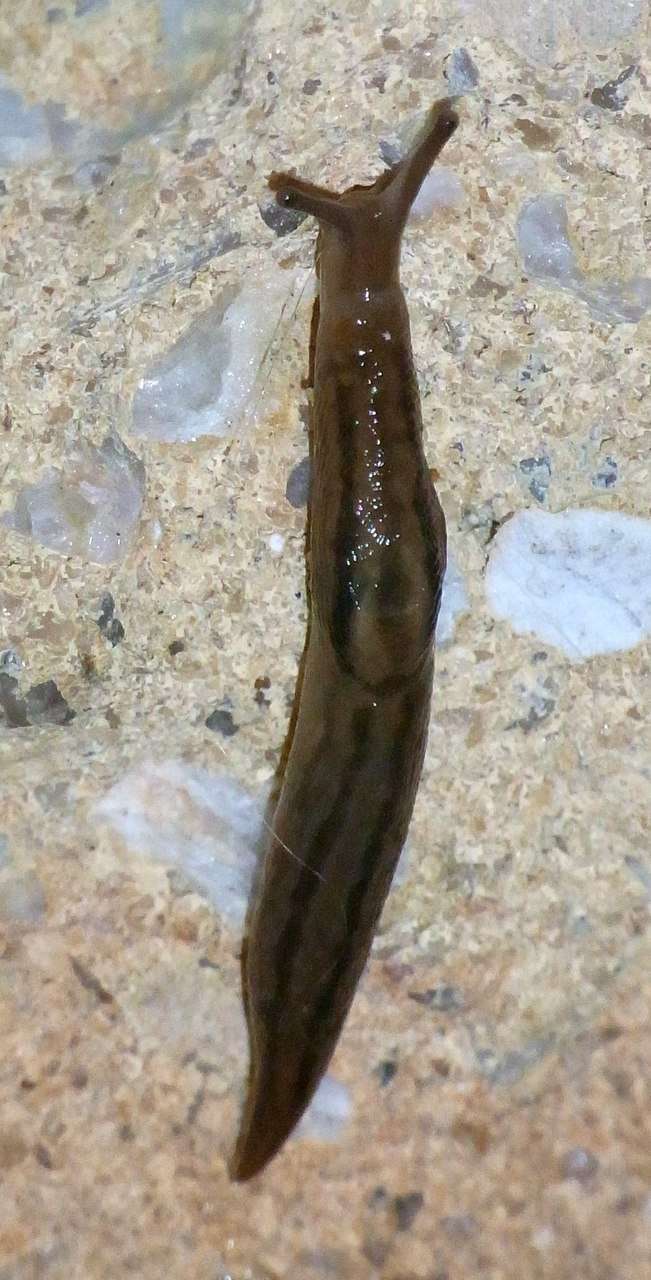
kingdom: Animalia
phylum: Mollusca
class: Gastropoda
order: Stylommatophora
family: Limacidae
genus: Ambigolimax
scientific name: Ambigolimax
